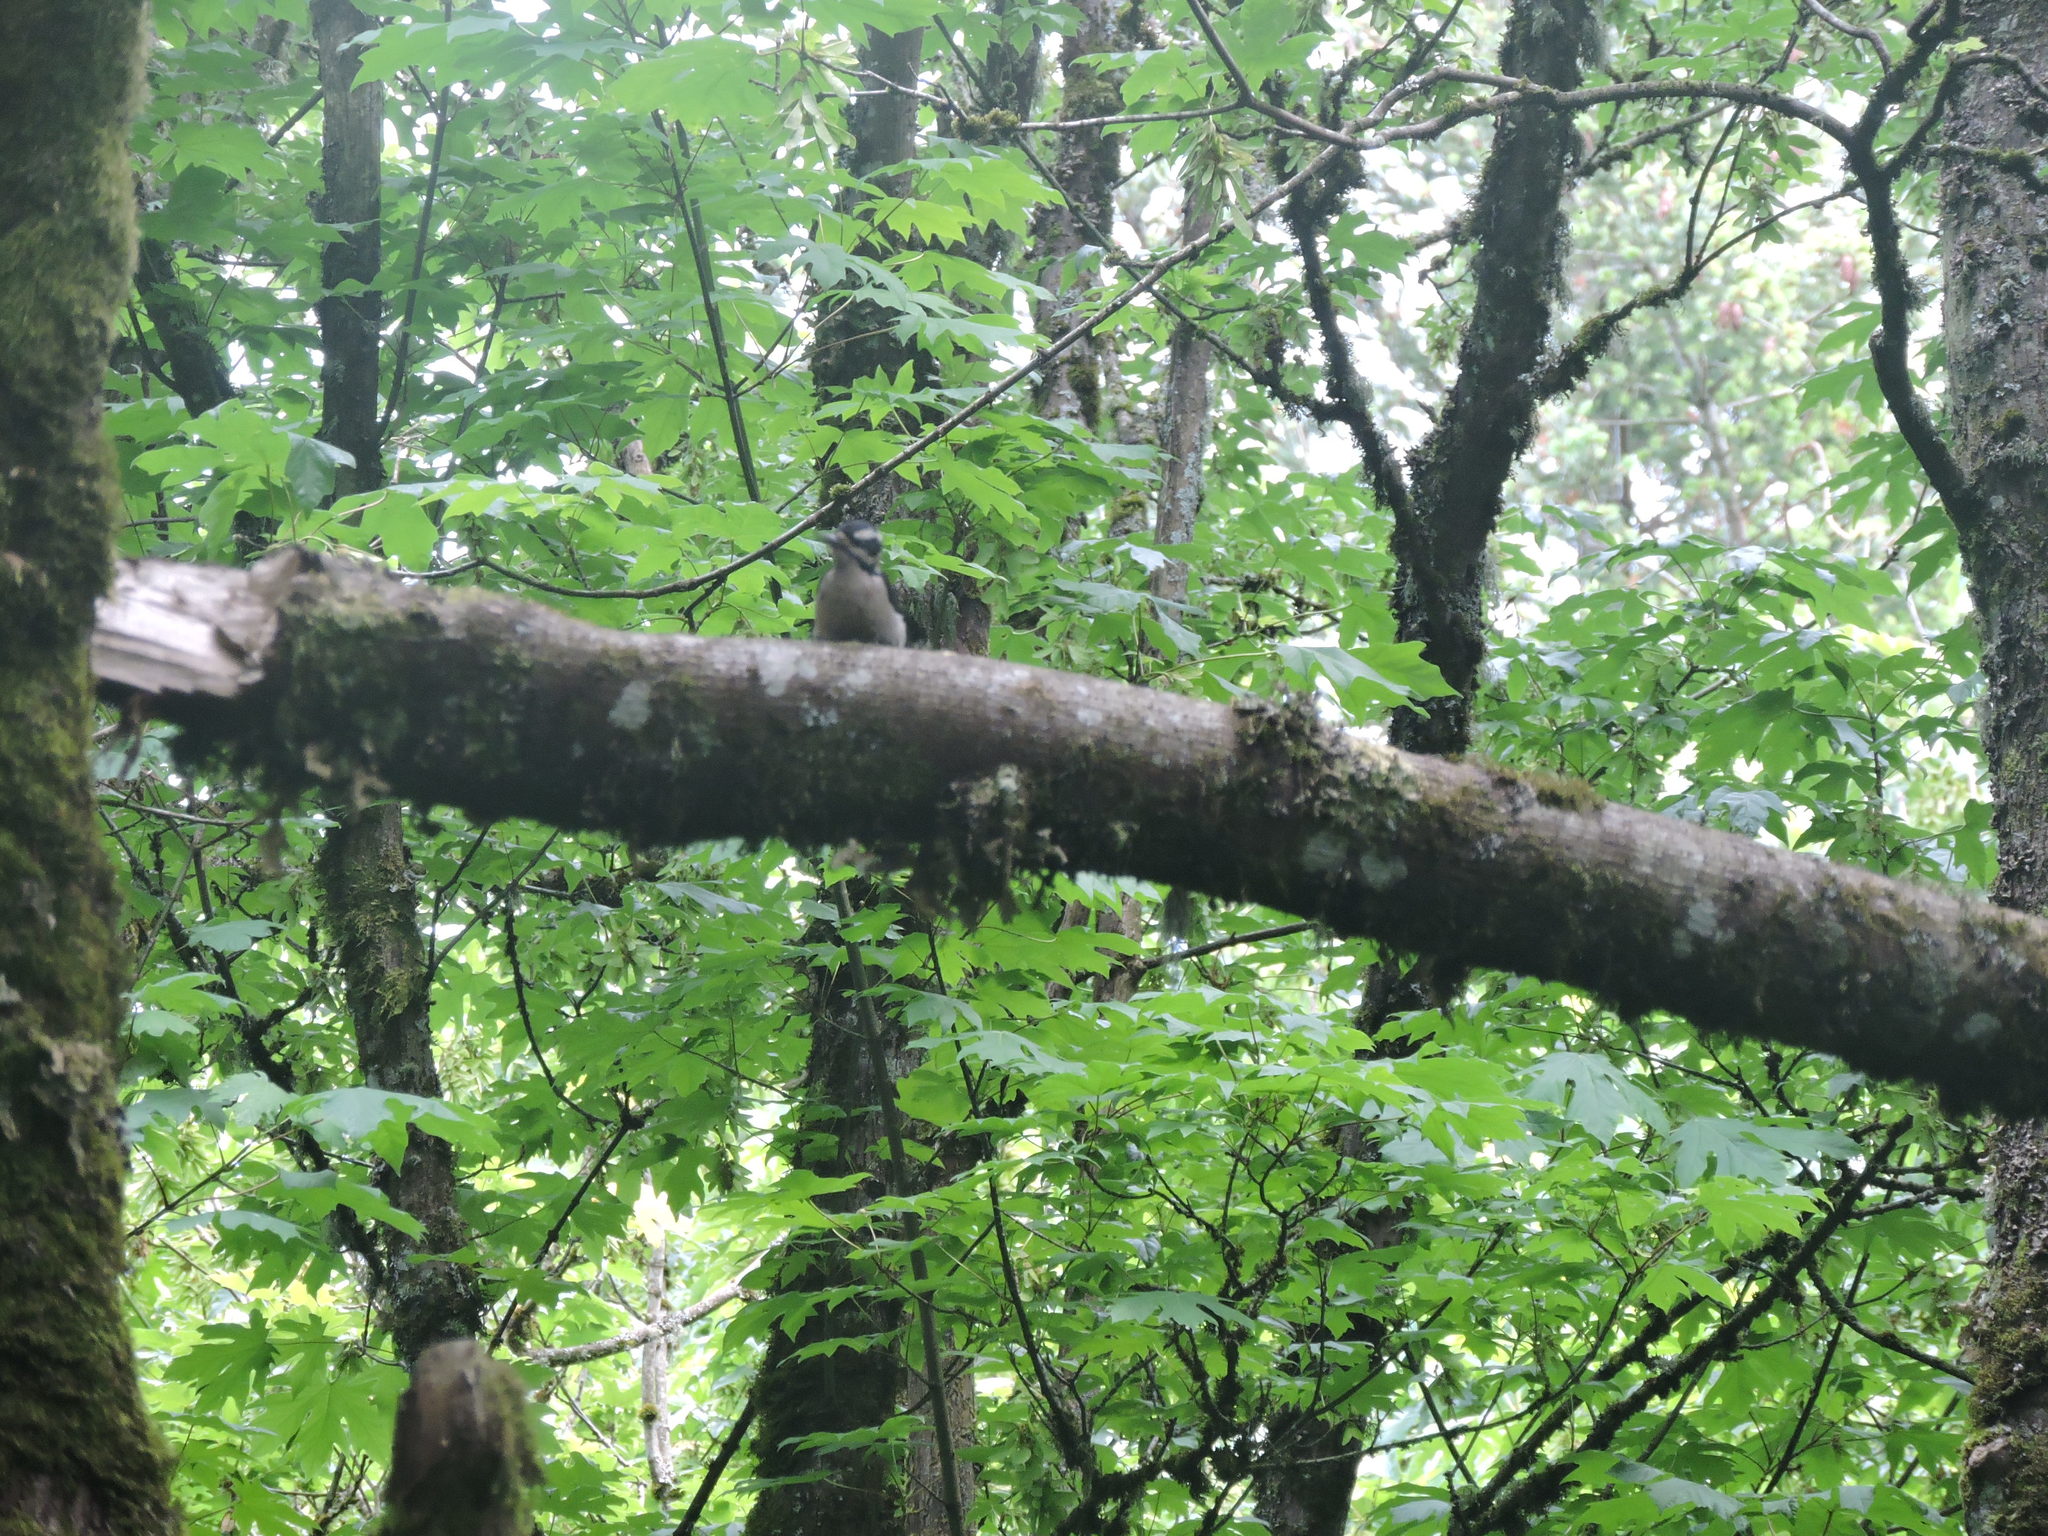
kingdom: Animalia
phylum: Chordata
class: Aves
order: Piciformes
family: Picidae
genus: Leuconotopicus
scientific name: Leuconotopicus villosus
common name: Hairy woodpecker
